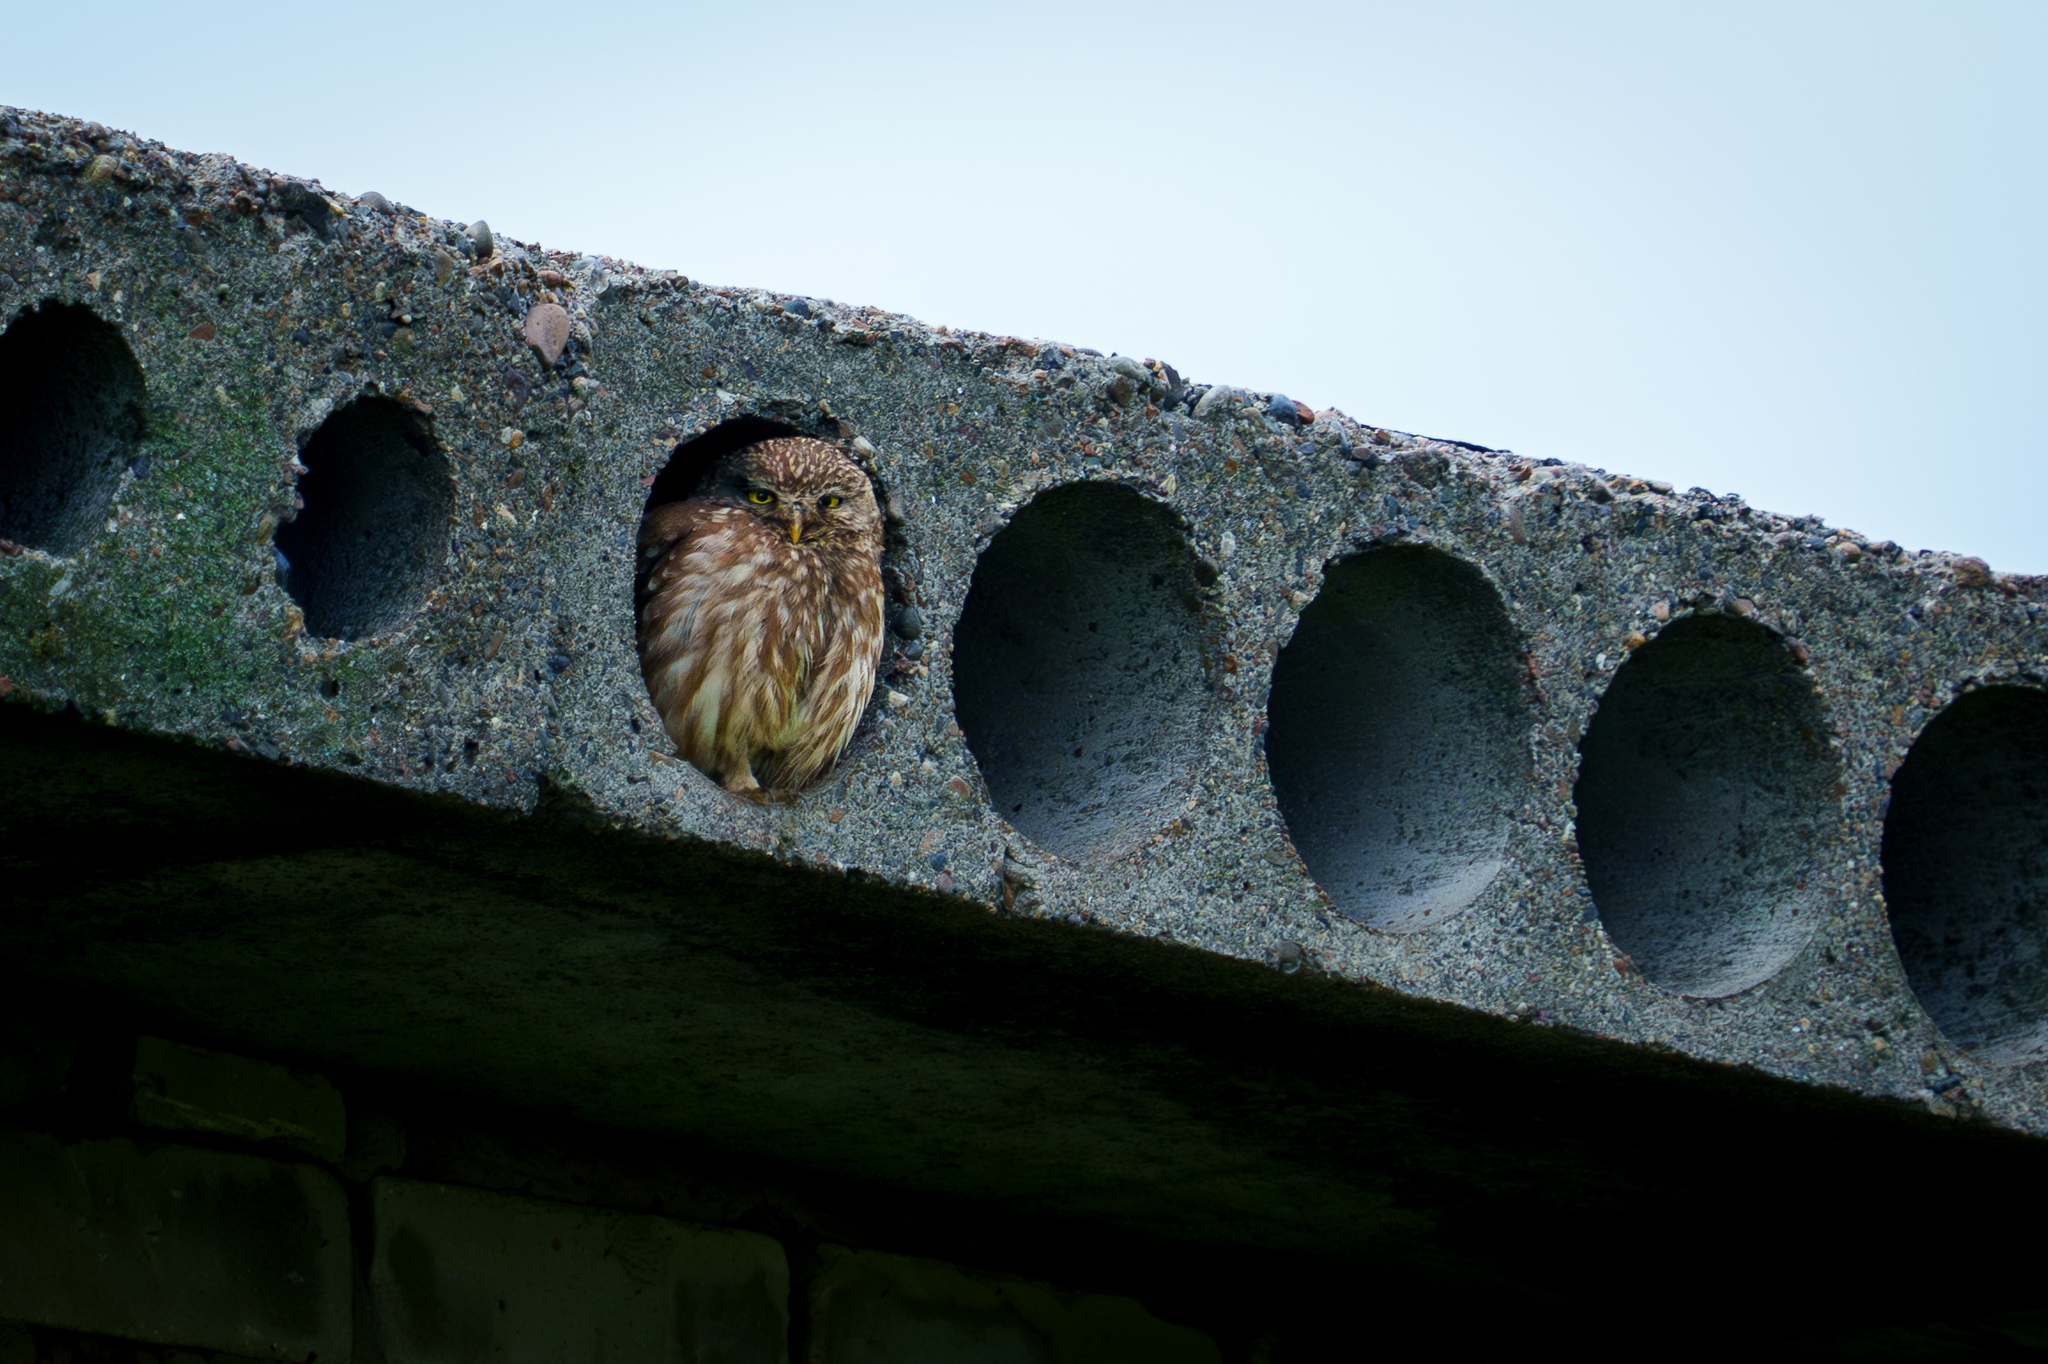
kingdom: Animalia
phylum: Chordata
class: Aves
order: Strigiformes
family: Strigidae
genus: Athene
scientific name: Athene noctua
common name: Little owl
